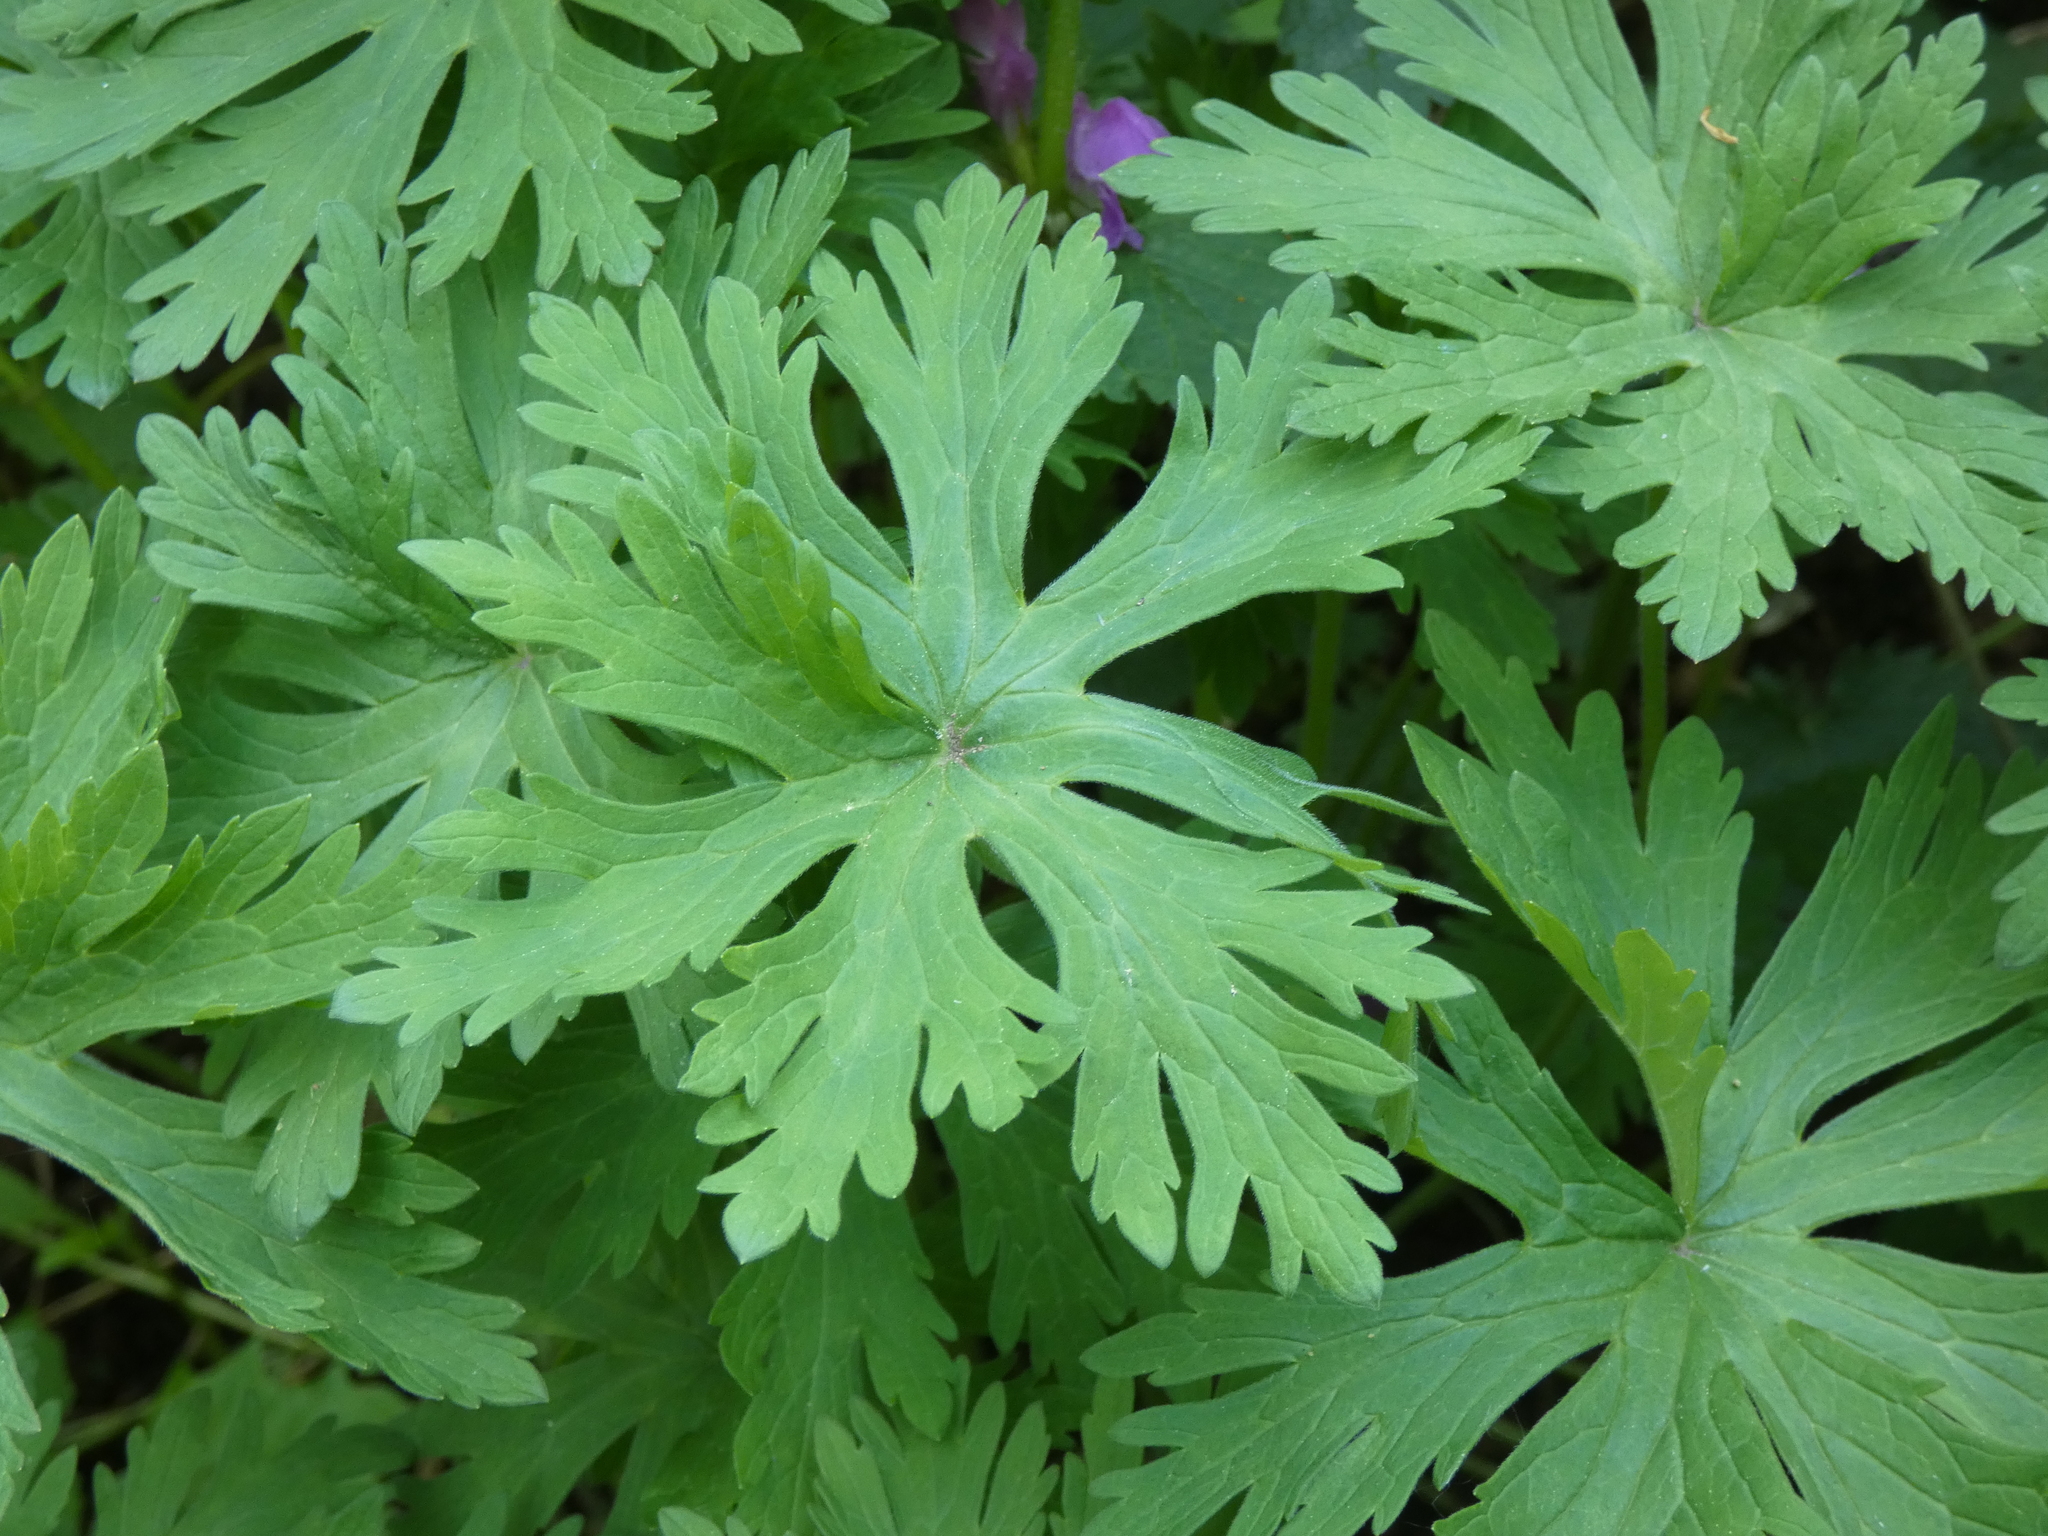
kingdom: Plantae
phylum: Tracheophyta
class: Magnoliopsida
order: Geraniales
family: Geraniaceae
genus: Geranium
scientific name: Geranium pratense
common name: Meadow crane's-bill
